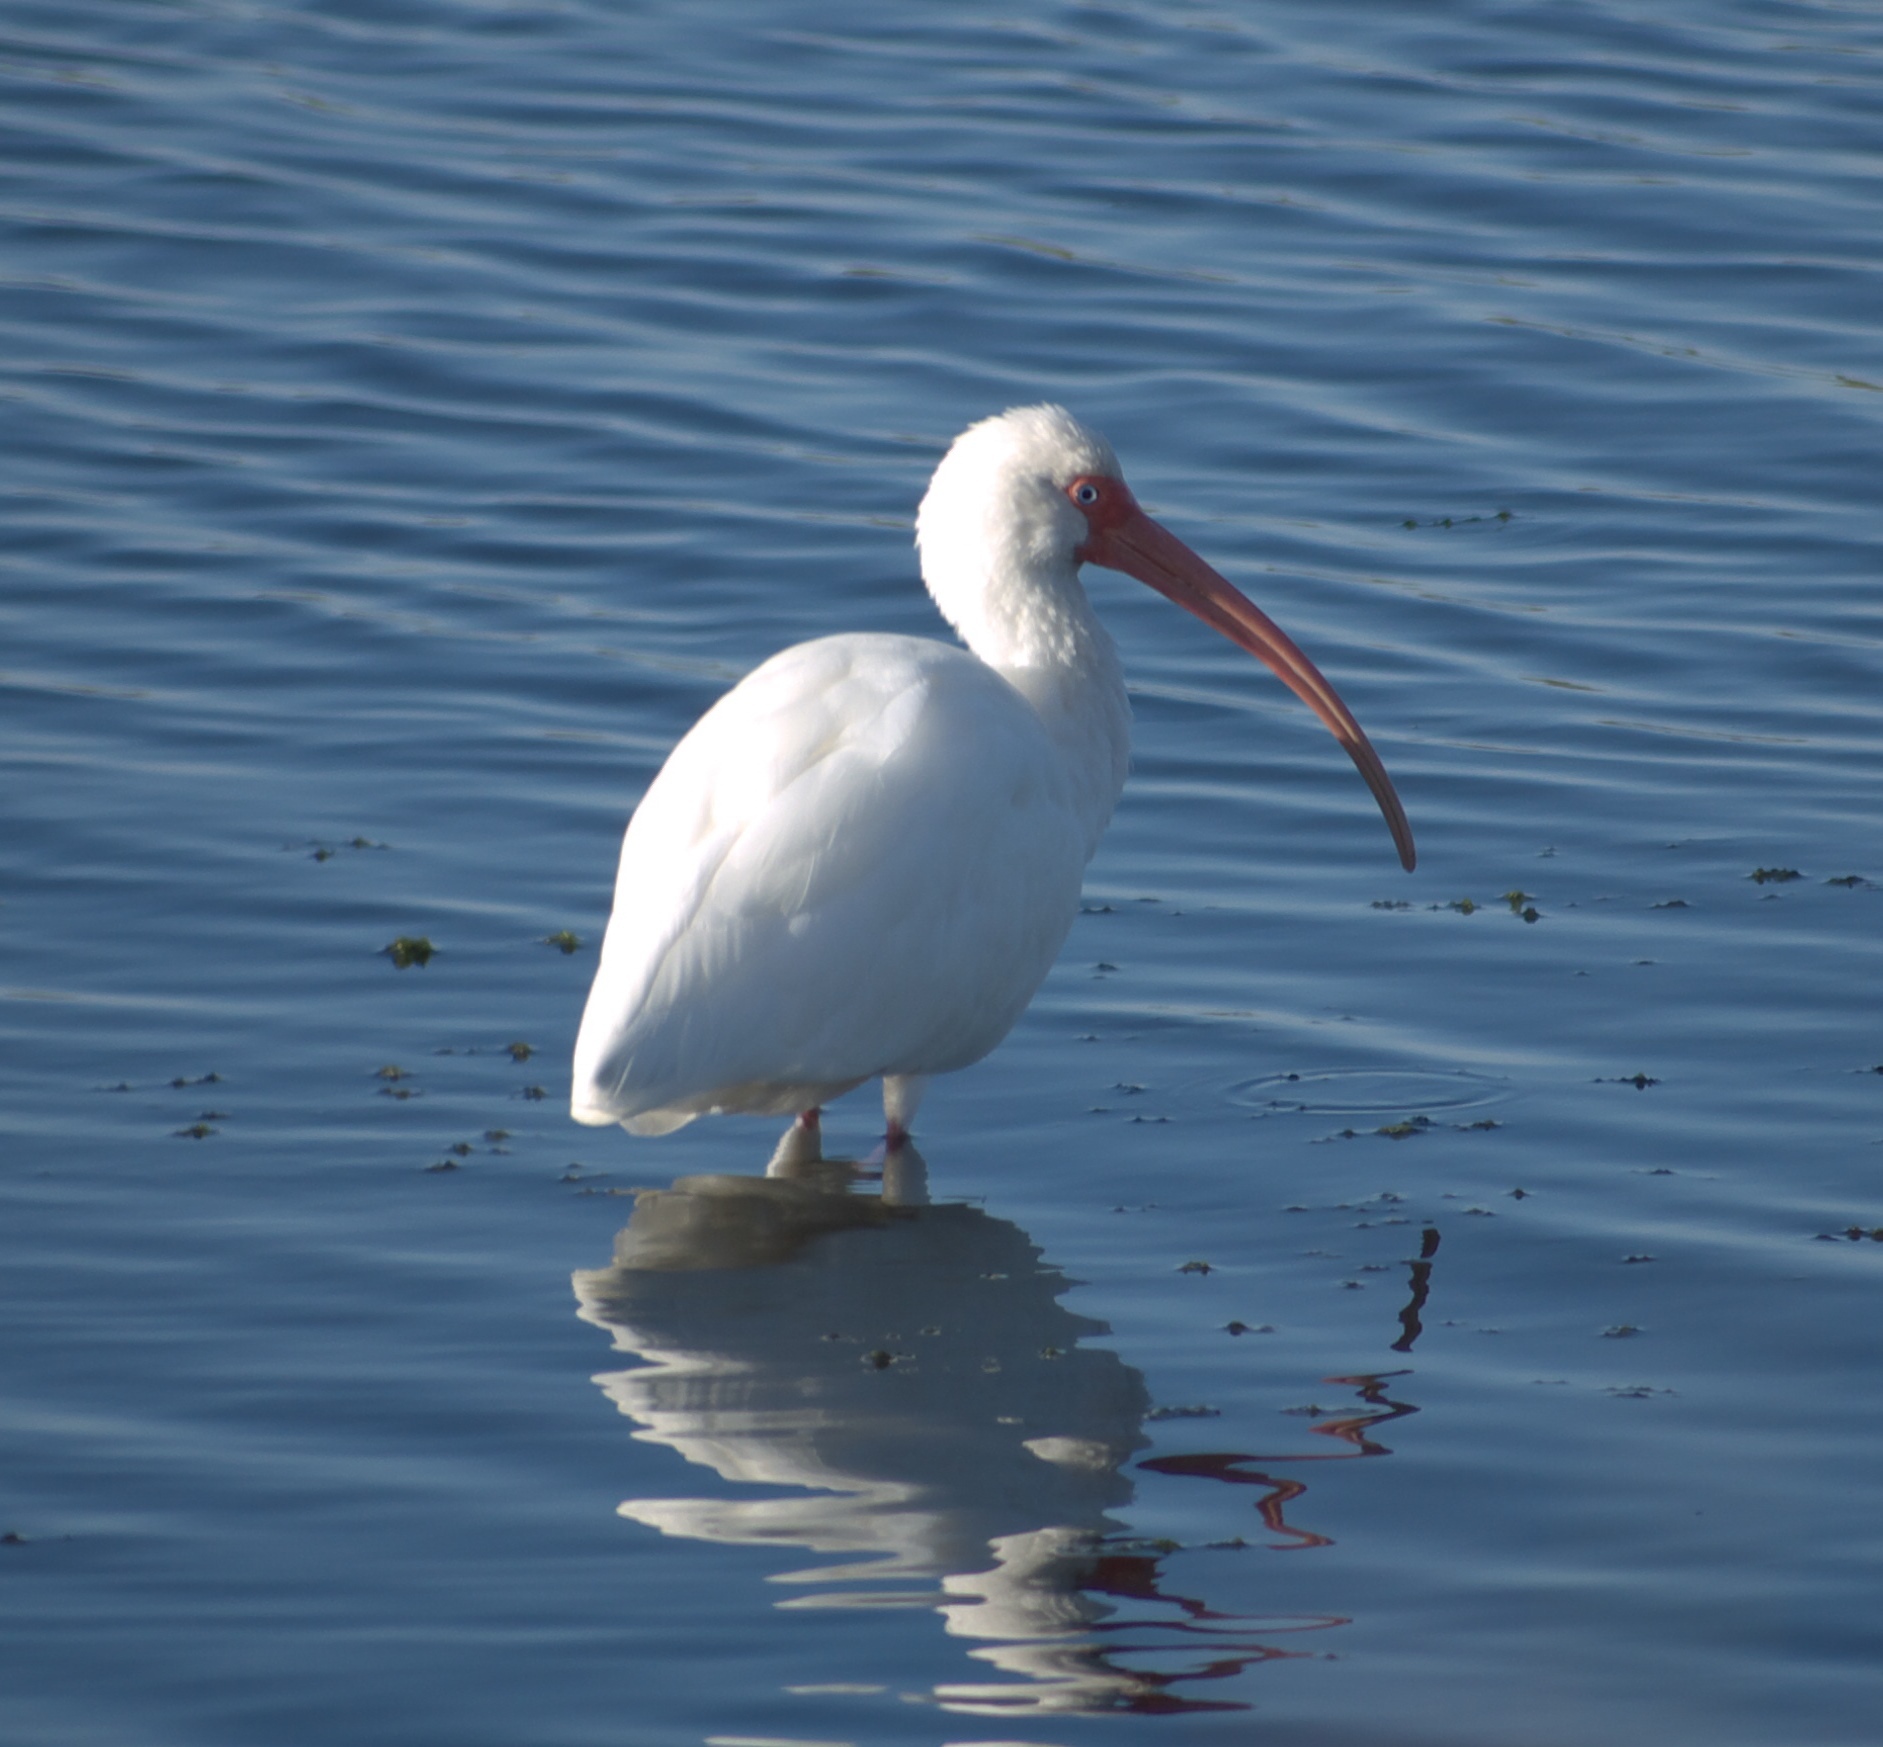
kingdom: Animalia
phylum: Chordata
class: Aves
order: Pelecaniformes
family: Threskiornithidae
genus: Eudocimus
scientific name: Eudocimus albus
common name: White ibis
